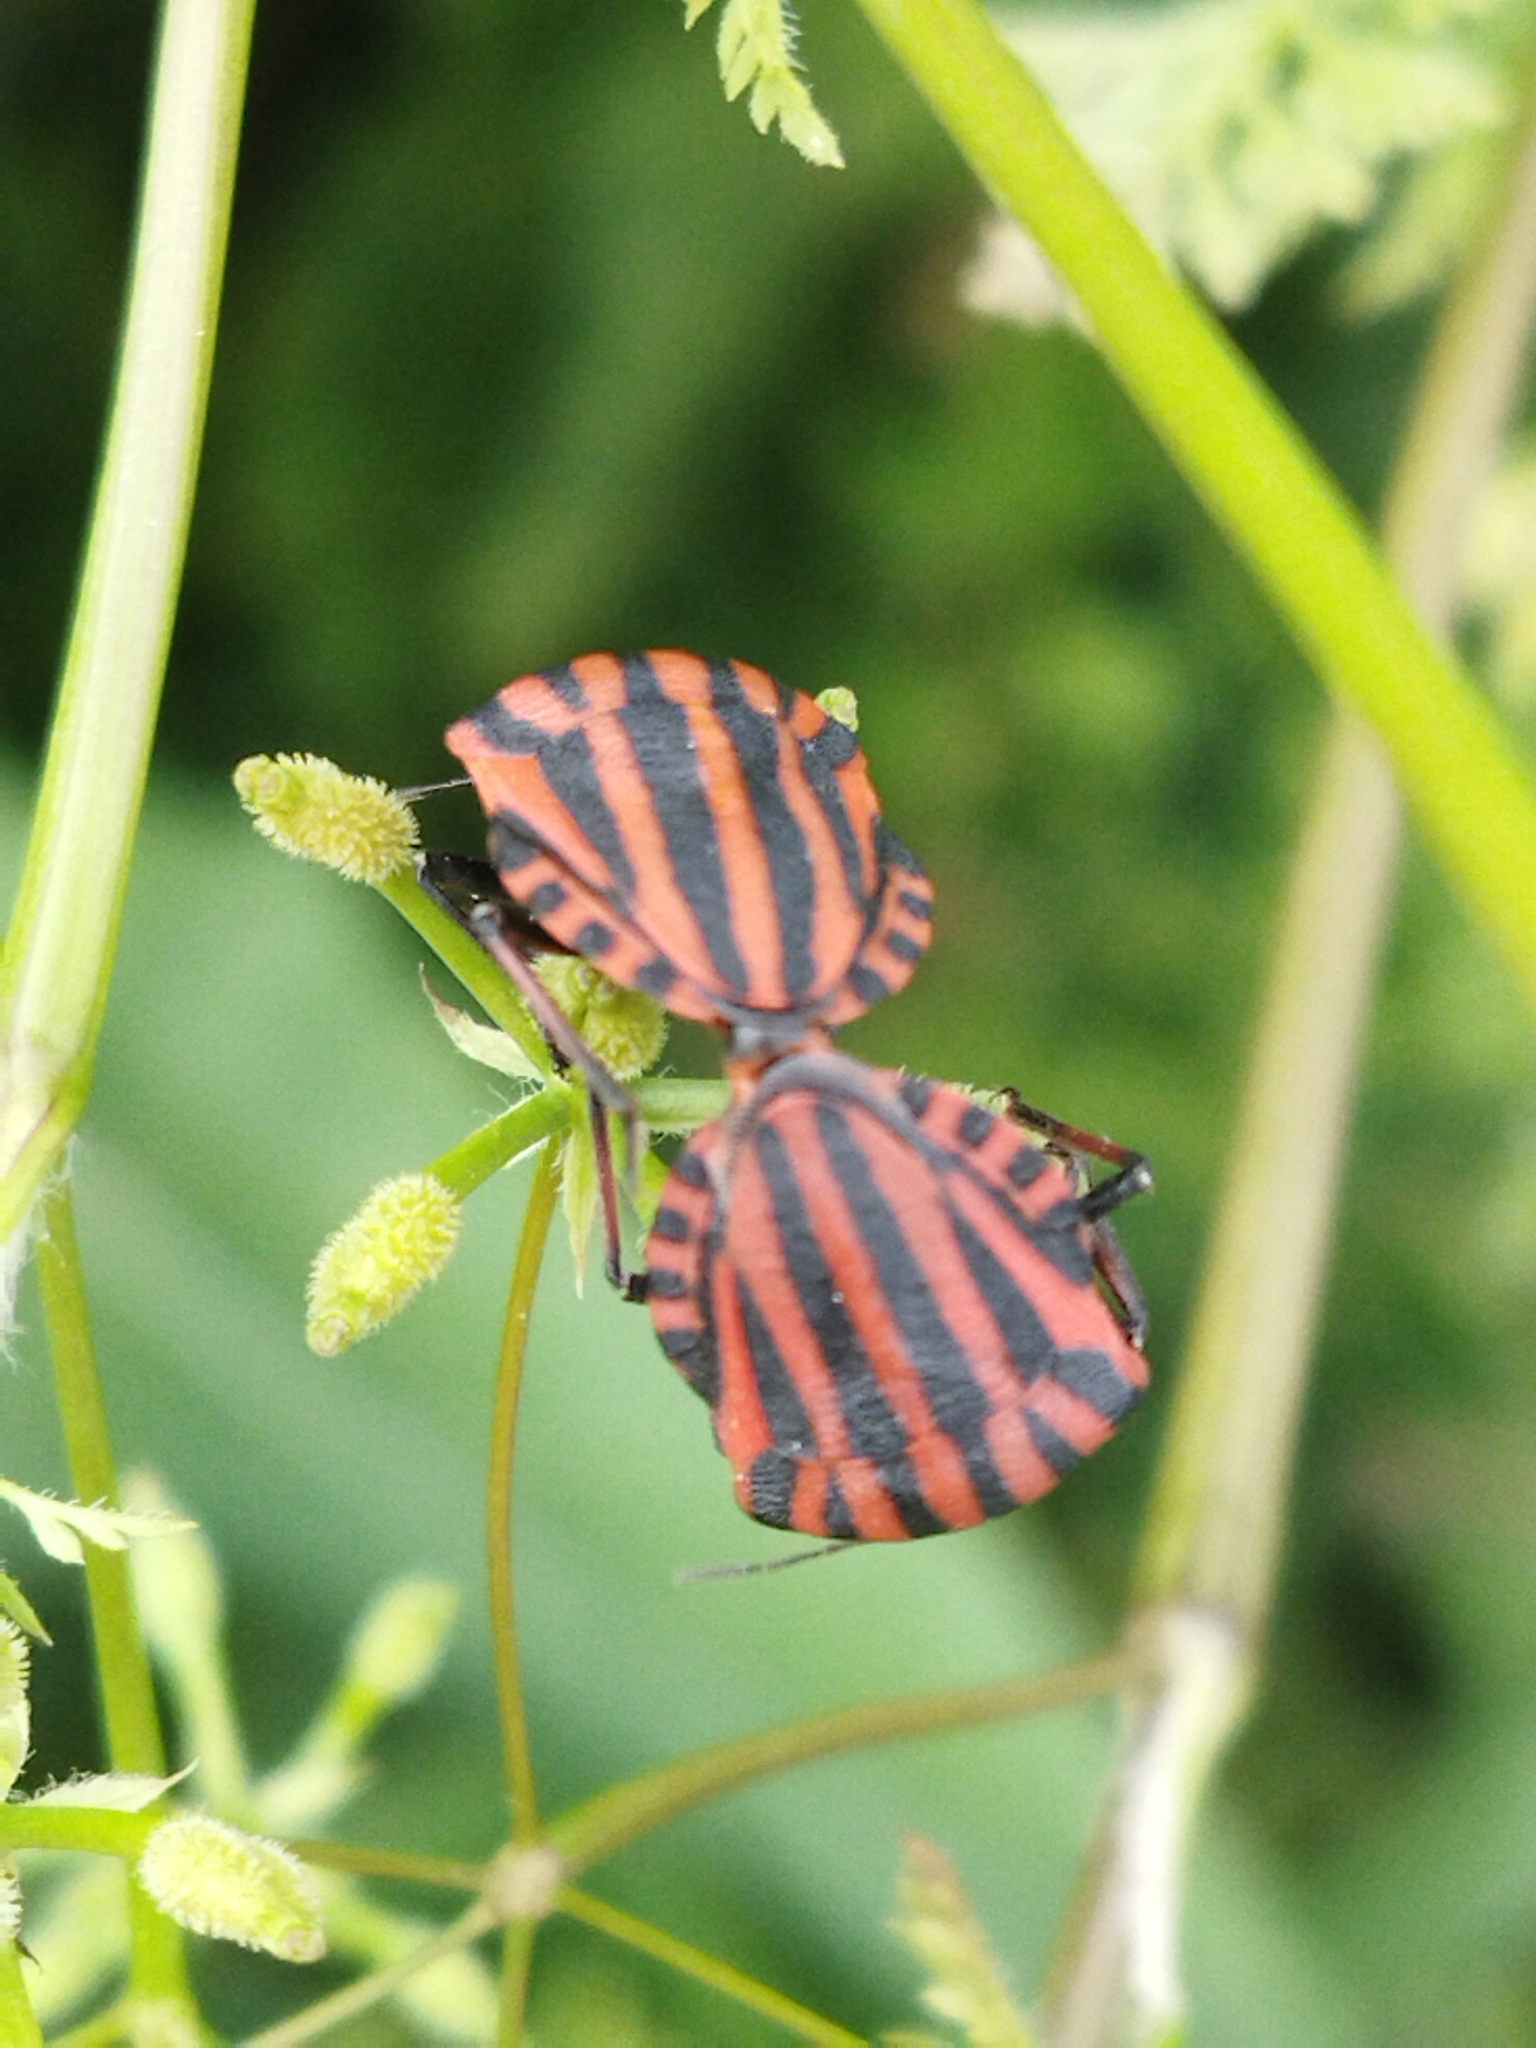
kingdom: Animalia
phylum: Arthropoda
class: Insecta
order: Hemiptera
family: Pentatomidae
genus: Graphosoma
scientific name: Graphosoma italicum
